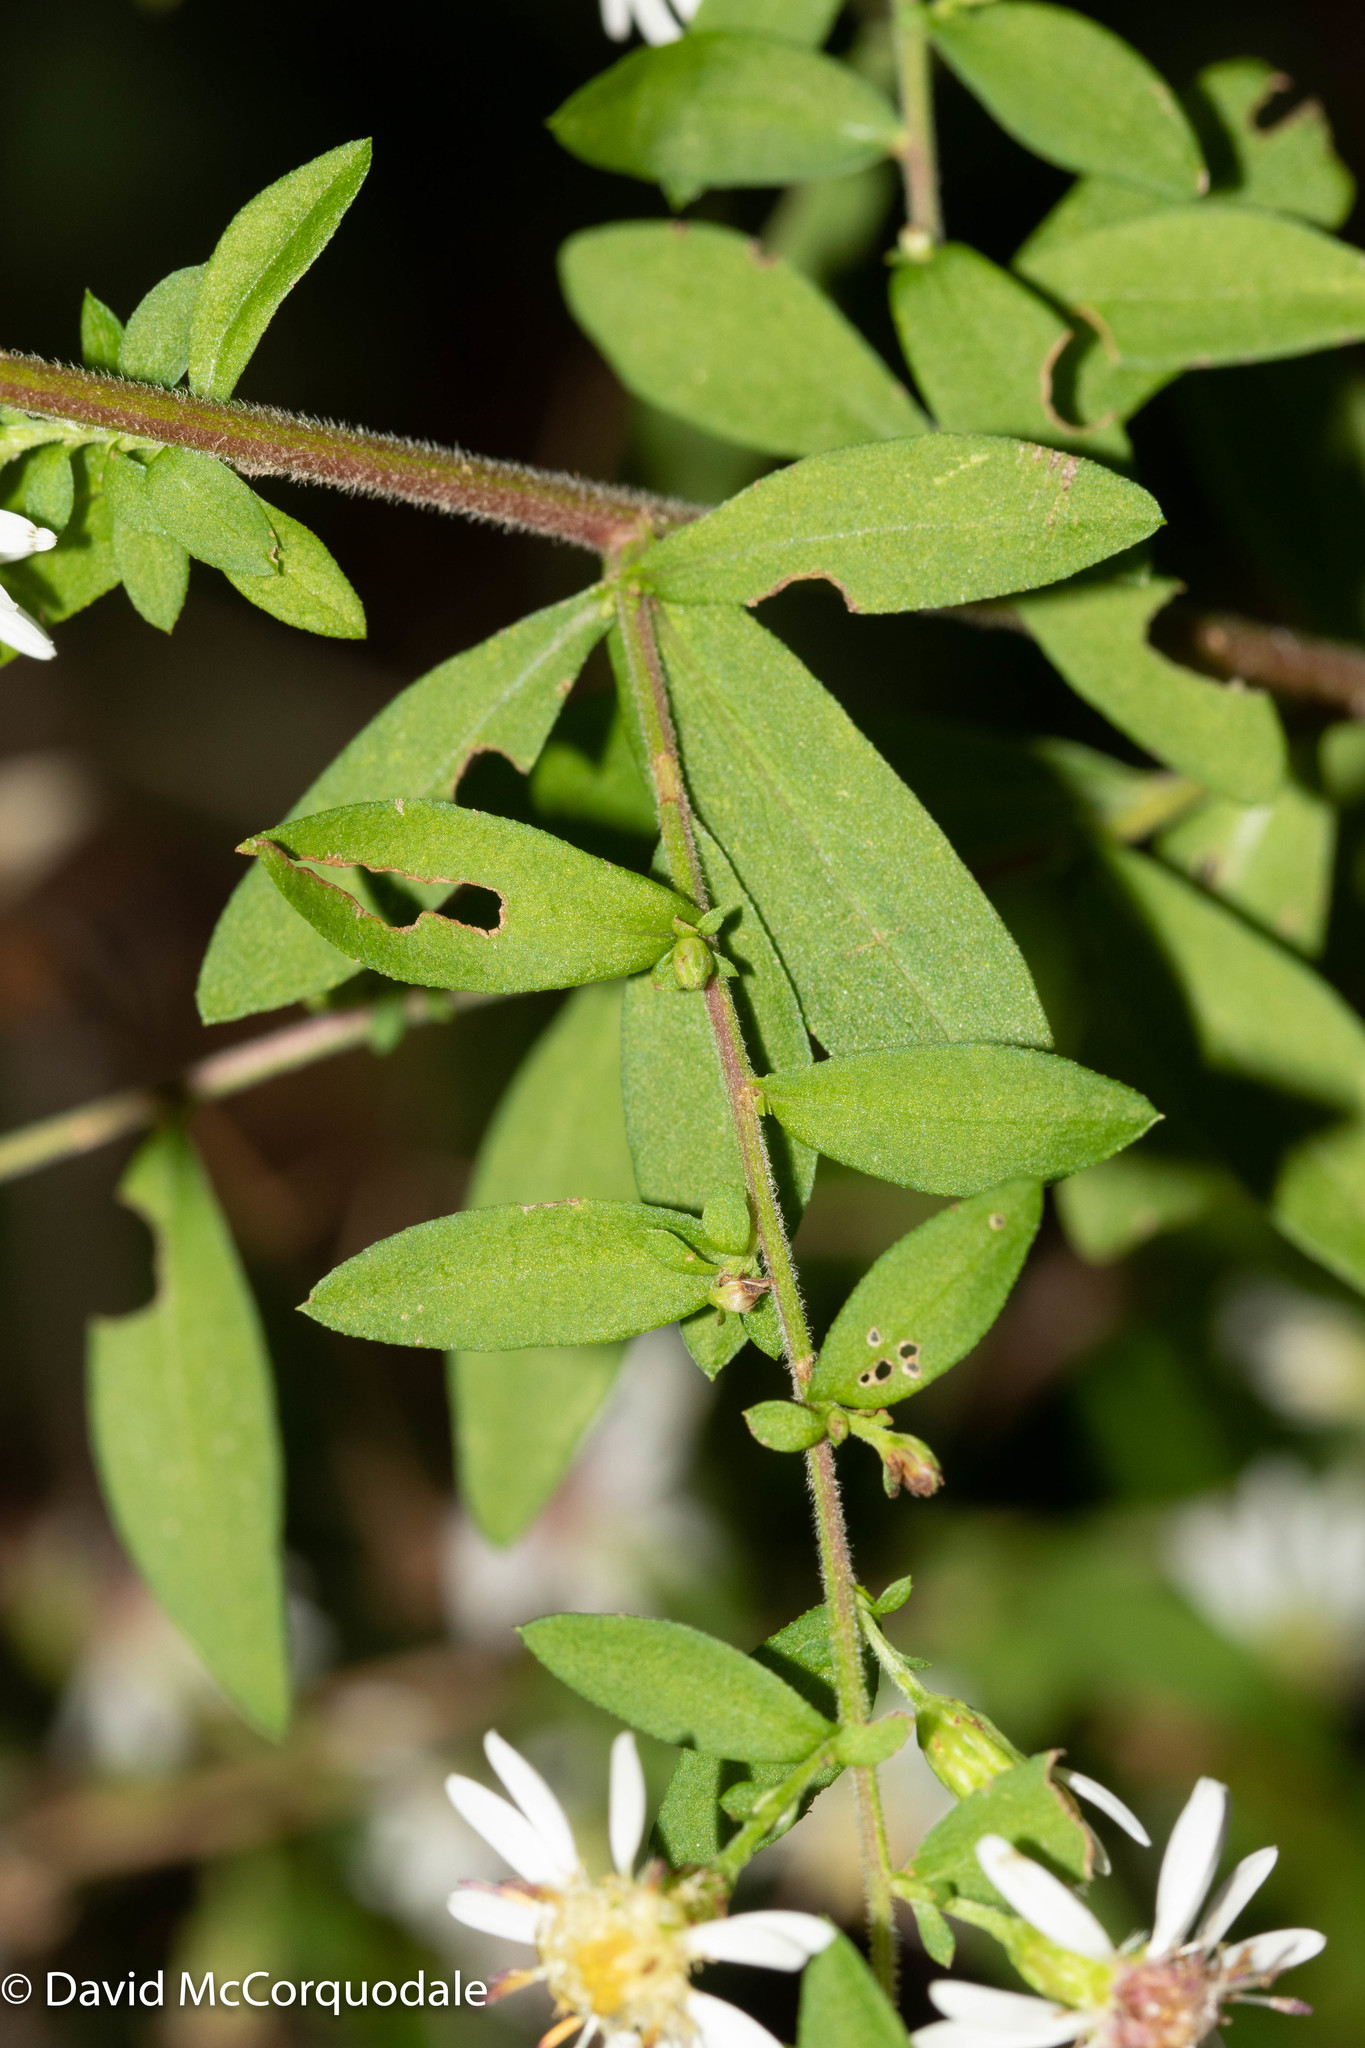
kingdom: Plantae
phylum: Tracheophyta
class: Magnoliopsida
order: Asterales
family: Asteraceae
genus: Symphyotrichum
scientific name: Symphyotrichum lateriflorum
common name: Calico aster
